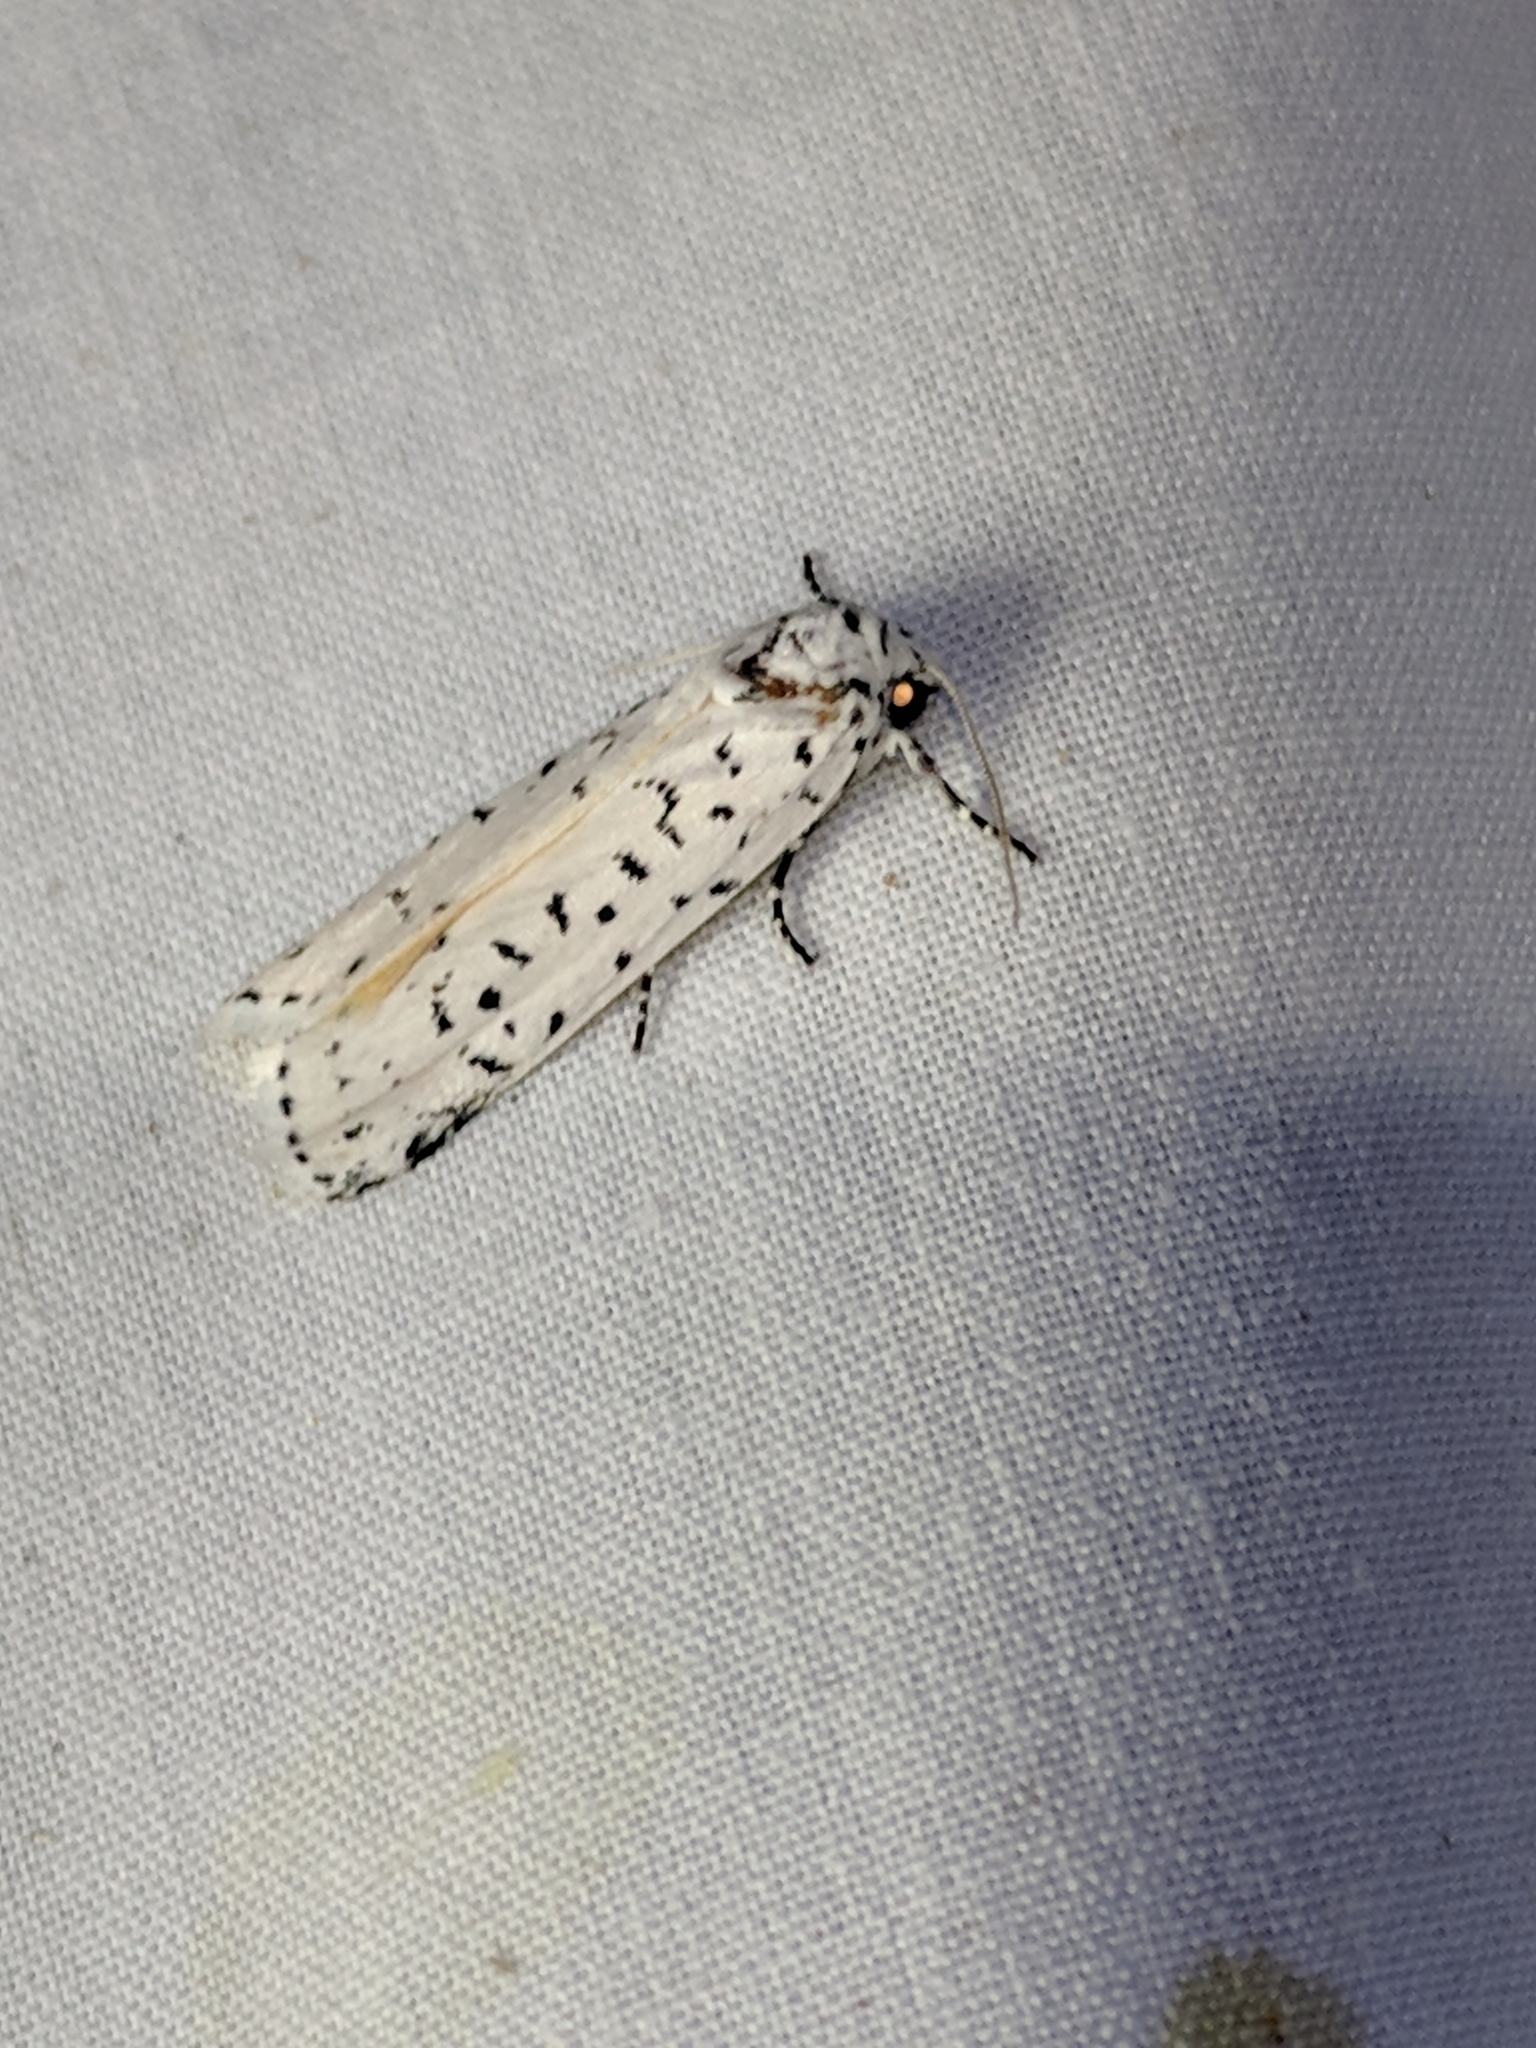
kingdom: Animalia
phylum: Arthropoda
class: Insecta
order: Lepidoptera
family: Noctuidae
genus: Cerathosia
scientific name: Cerathosia tricolor
